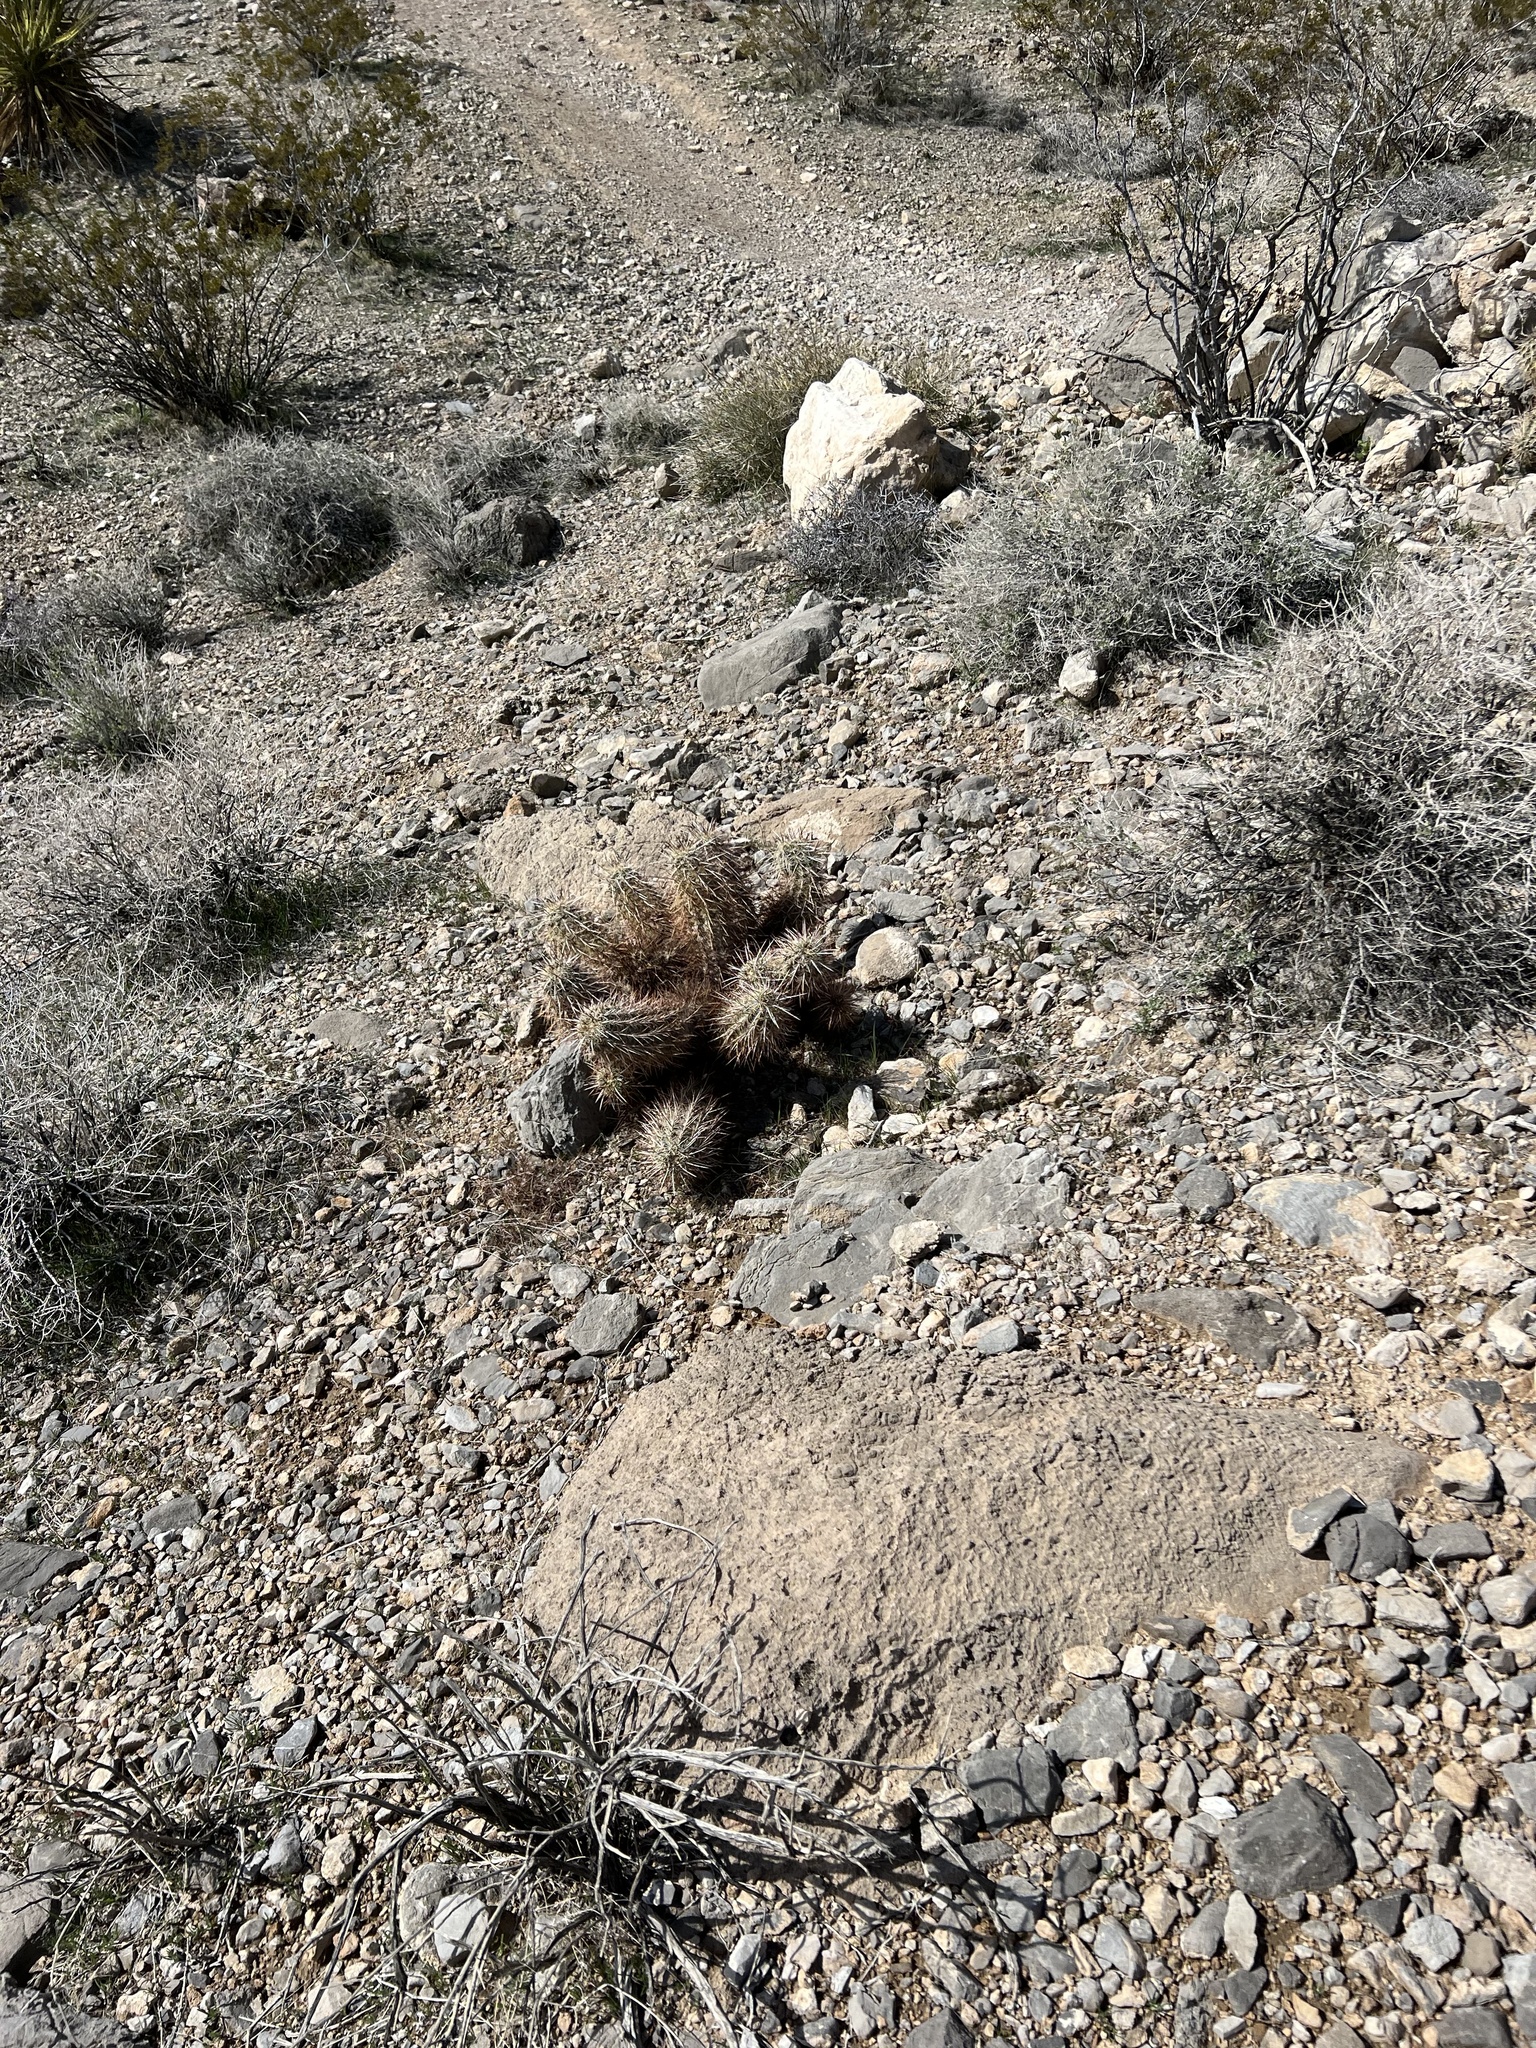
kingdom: Plantae
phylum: Tracheophyta
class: Magnoliopsida
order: Caryophyllales
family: Cactaceae
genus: Echinocereus
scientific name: Echinocereus engelmannii
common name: Engelmann's hedgehog cactus
